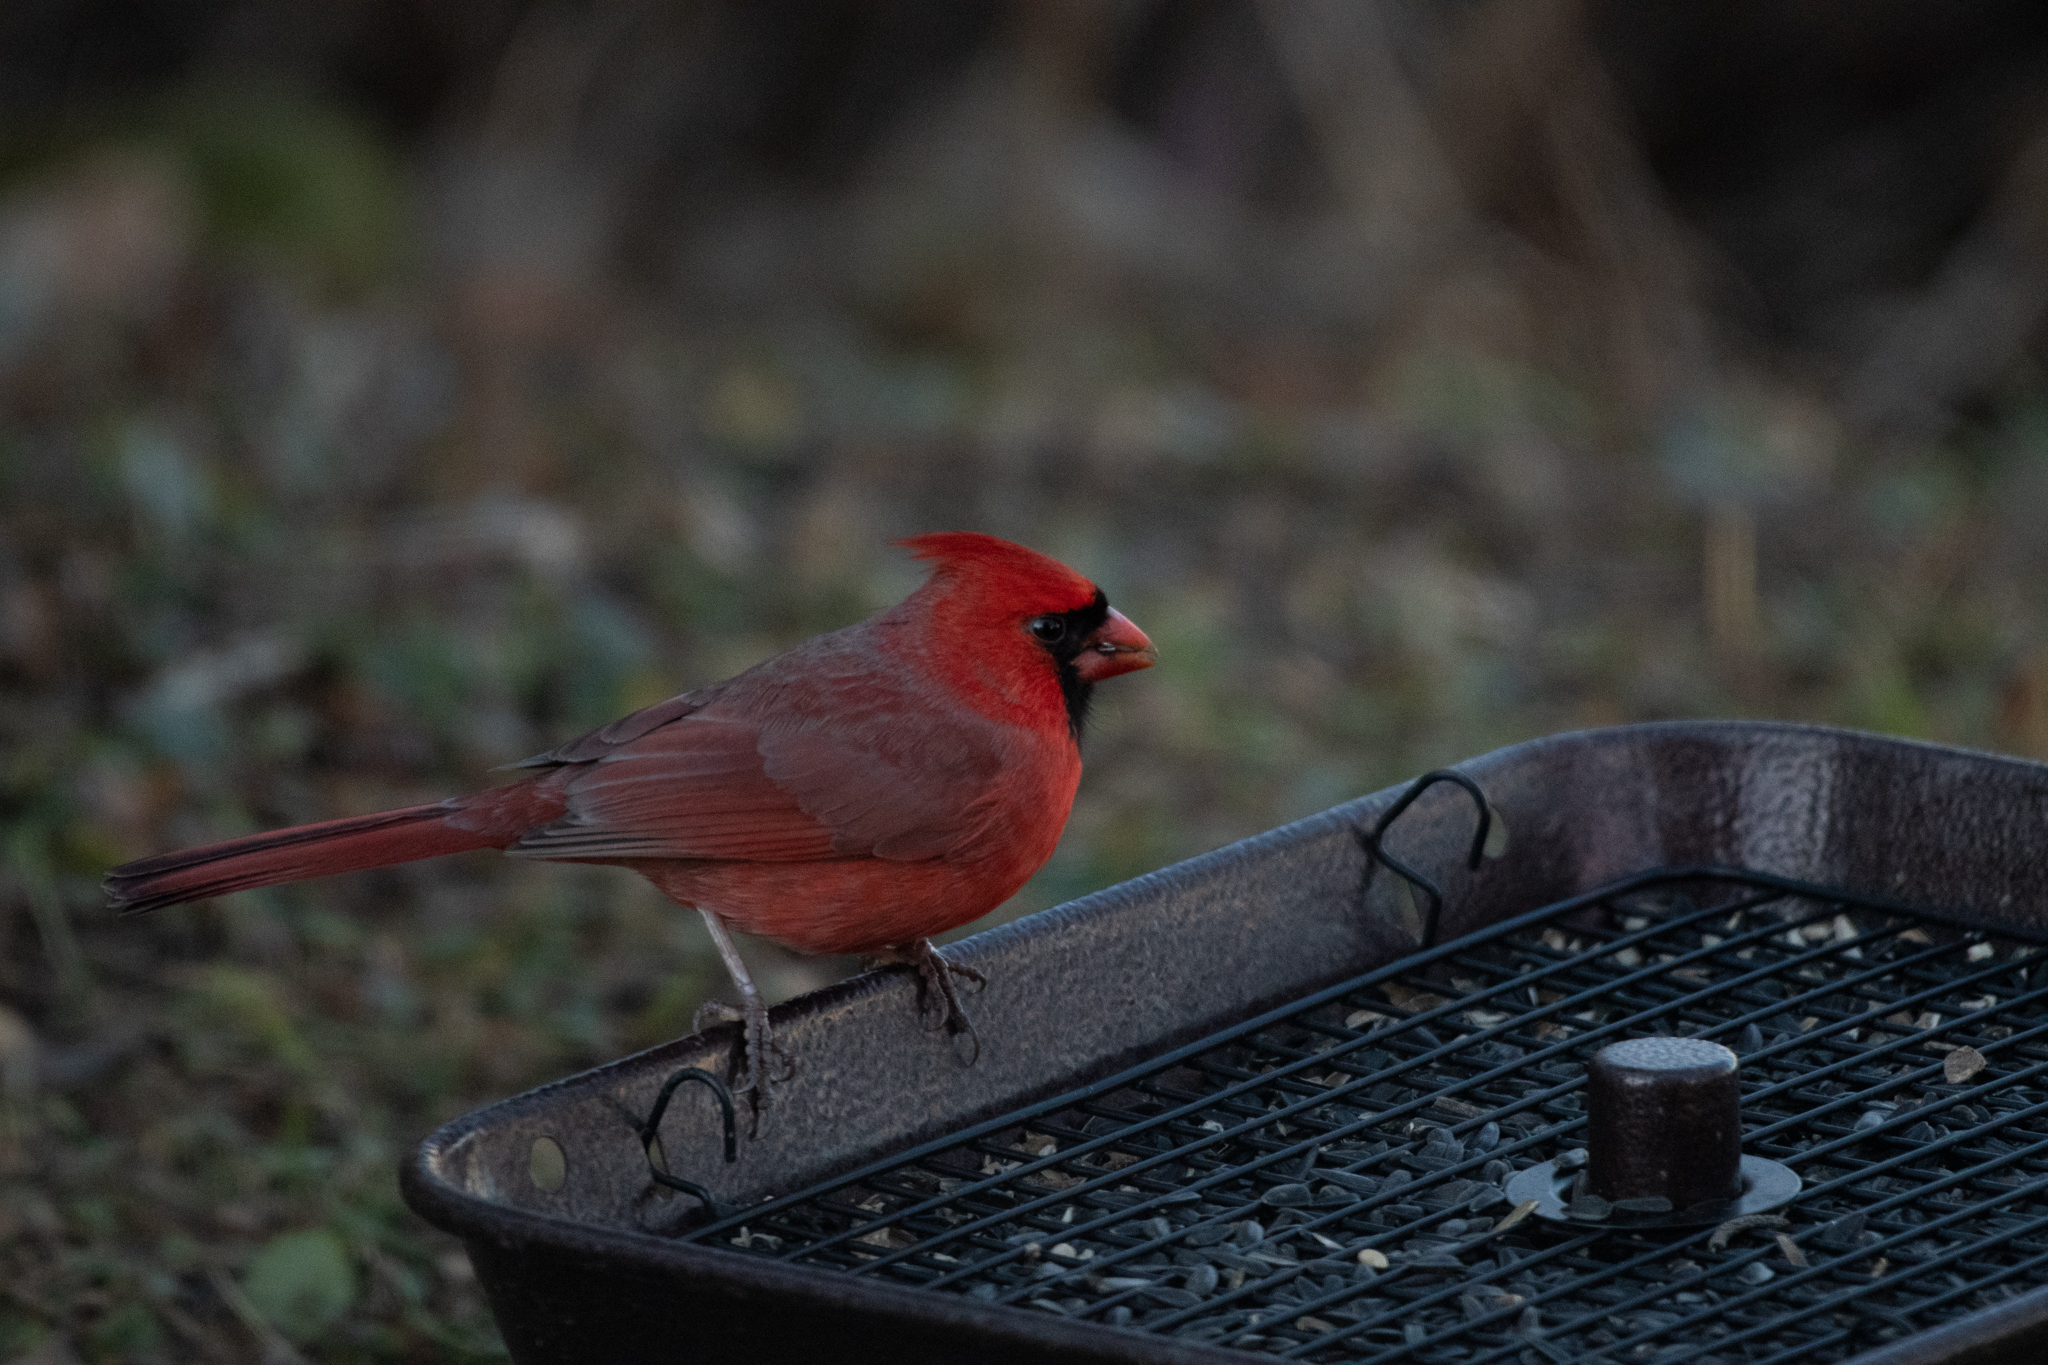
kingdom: Animalia
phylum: Chordata
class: Aves
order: Passeriformes
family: Cardinalidae
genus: Cardinalis
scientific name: Cardinalis cardinalis
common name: Northern cardinal
